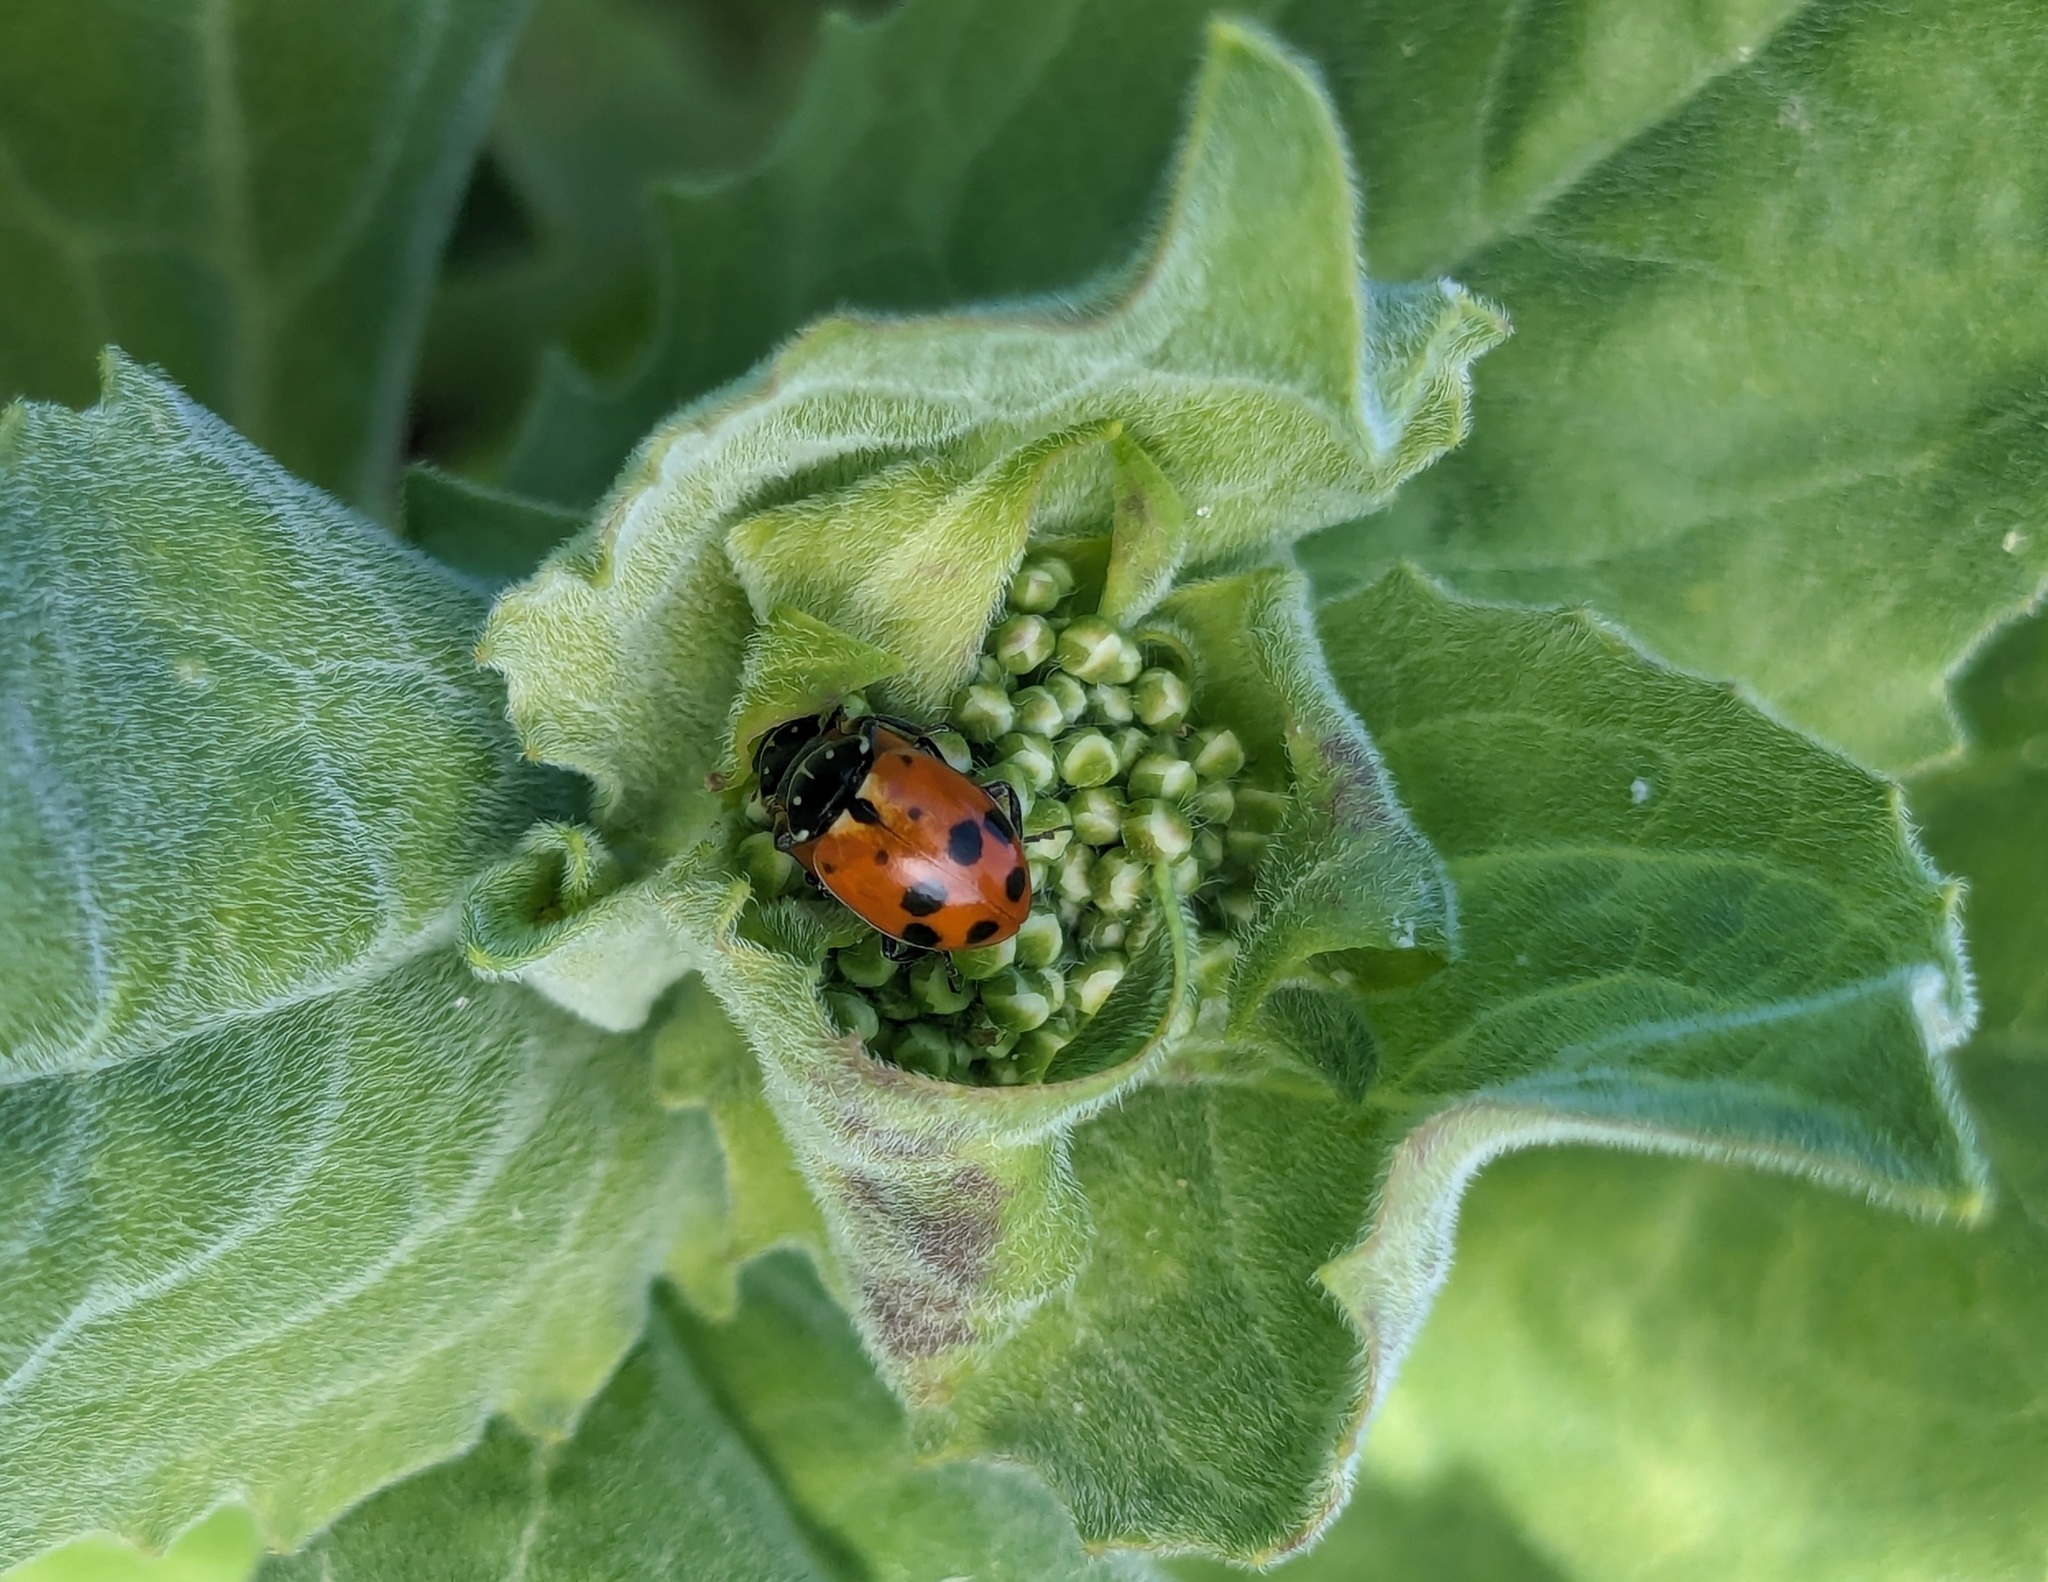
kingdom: Animalia
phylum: Arthropoda
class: Insecta
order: Coleoptera
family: Coccinellidae
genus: Hippodamia
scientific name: Hippodamia variegata
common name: Ladybird beetle
